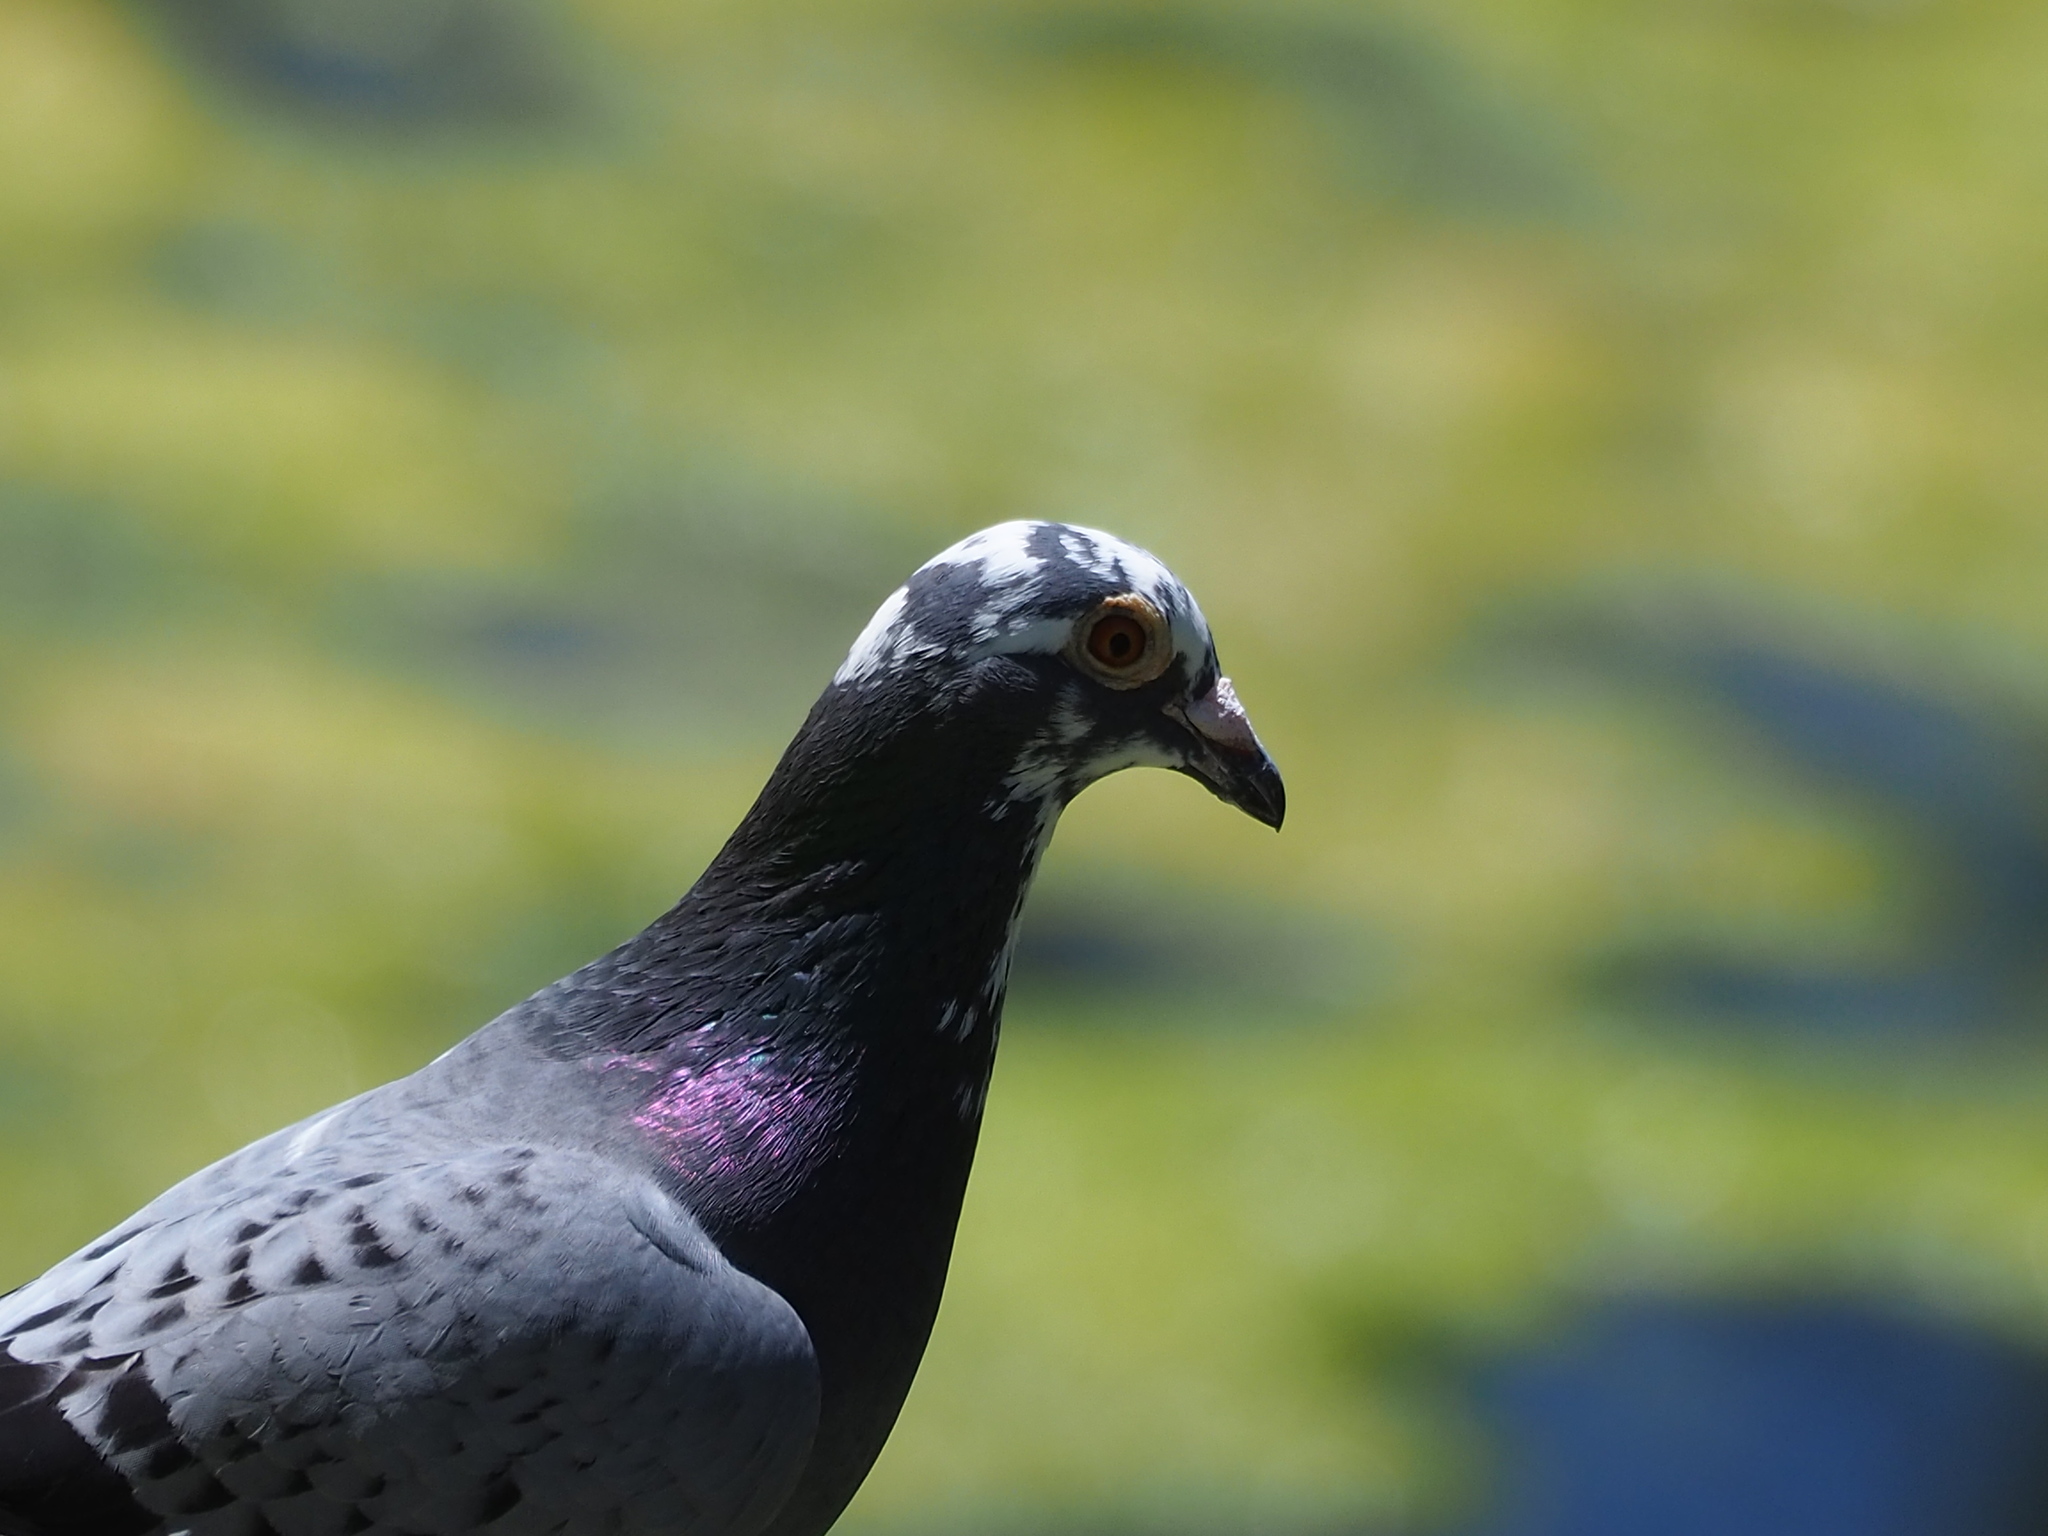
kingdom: Animalia
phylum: Chordata
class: Aves
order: Columbiformes
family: Columbidae
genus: Columba
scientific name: Columba livia
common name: Rock pigeon
